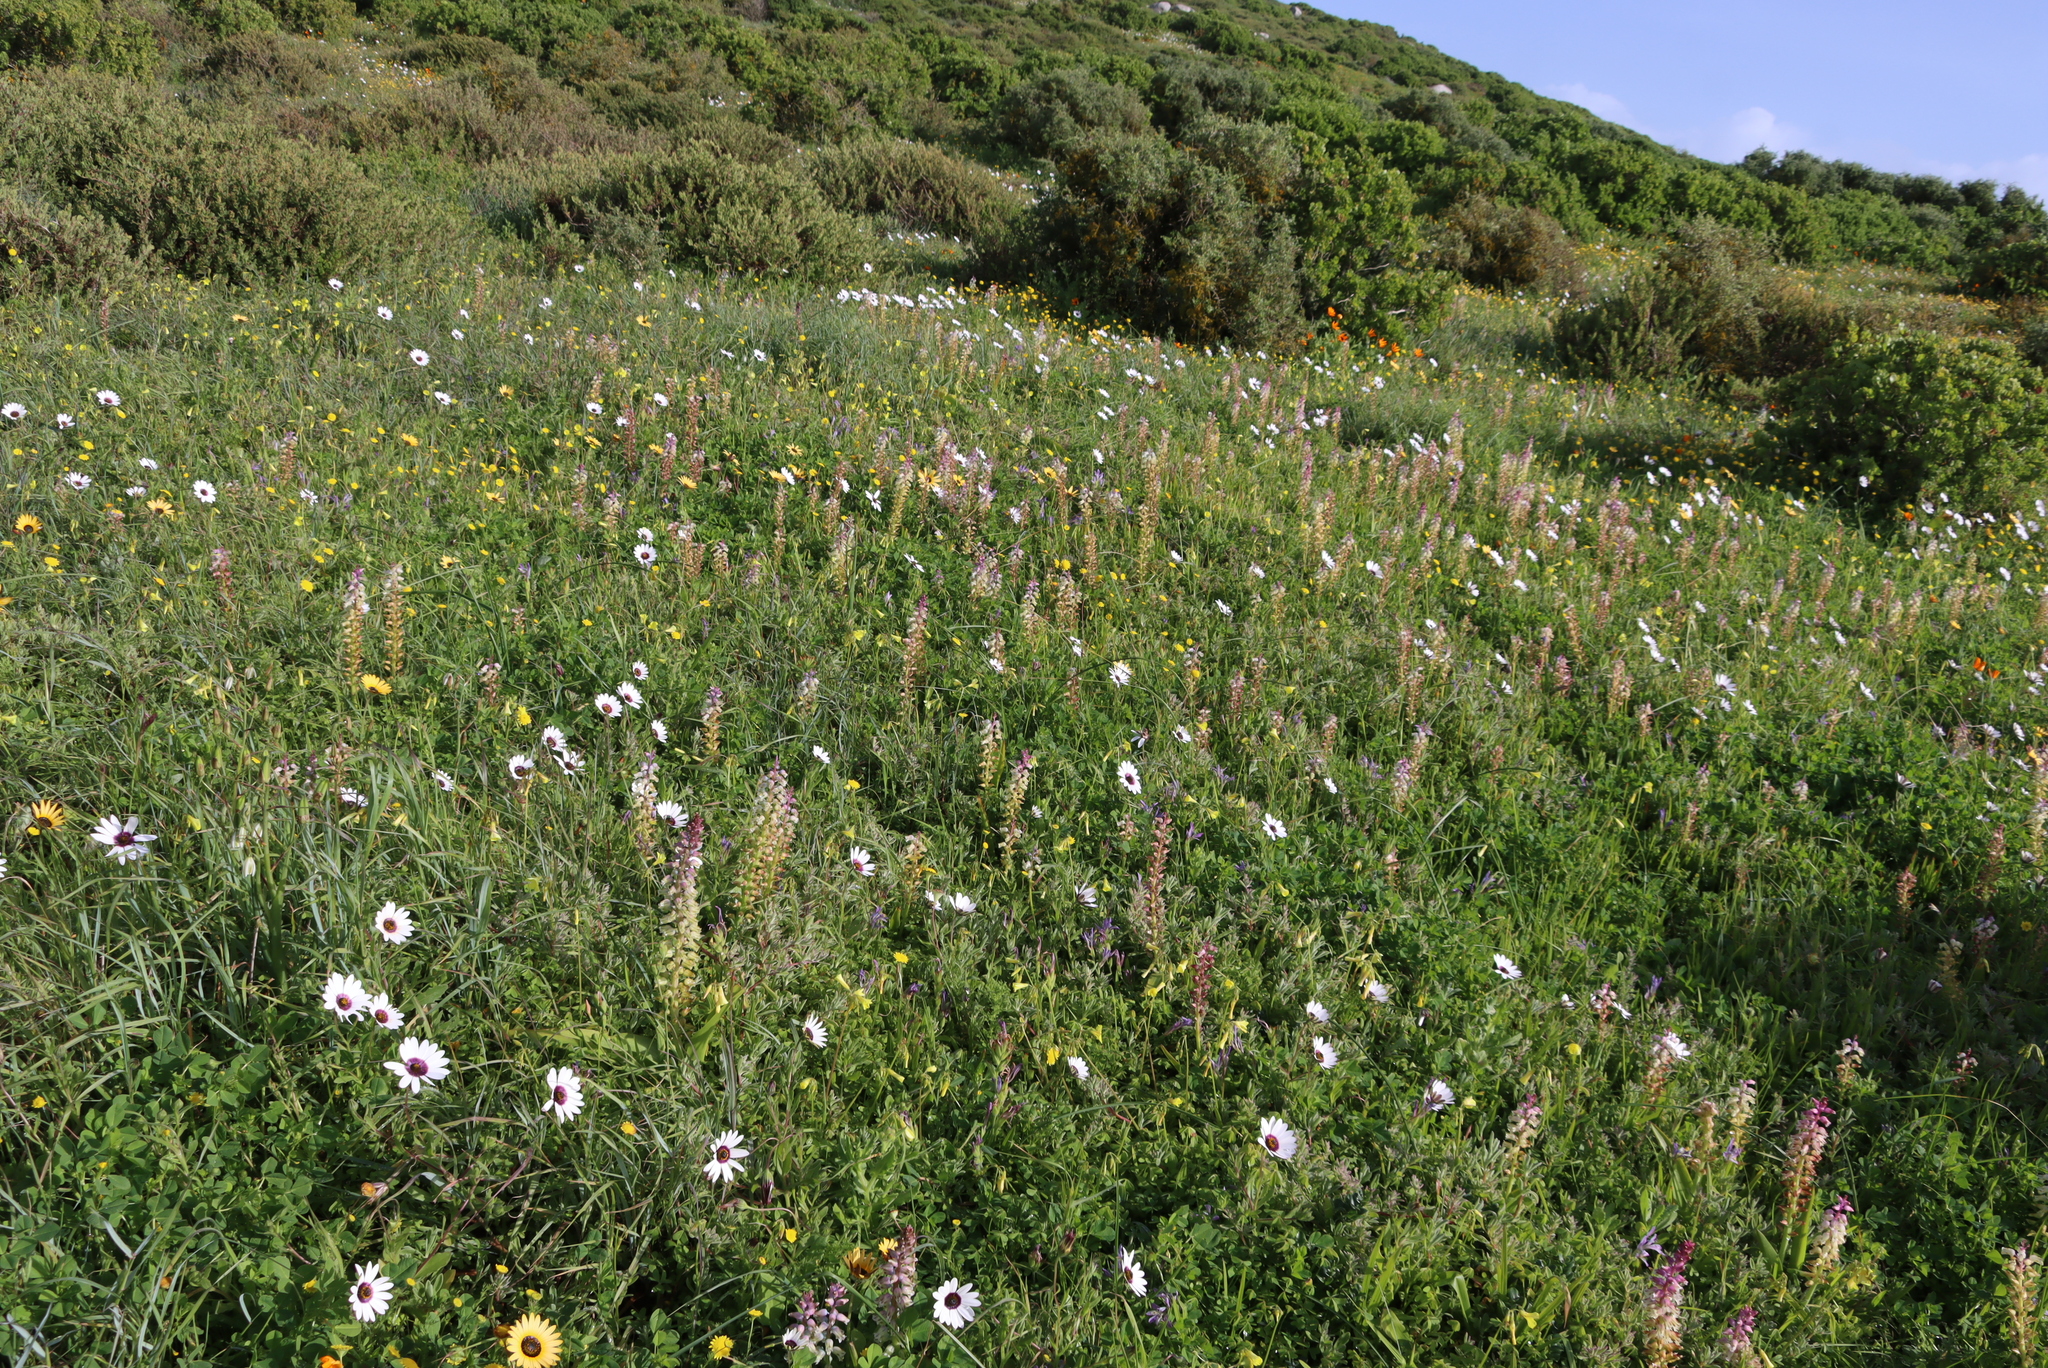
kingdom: Plantae
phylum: Tracheophyta
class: Liliopsida
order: Asparagales
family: Asparagaceae
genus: Lachenalia
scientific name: Lachenalia pallida
